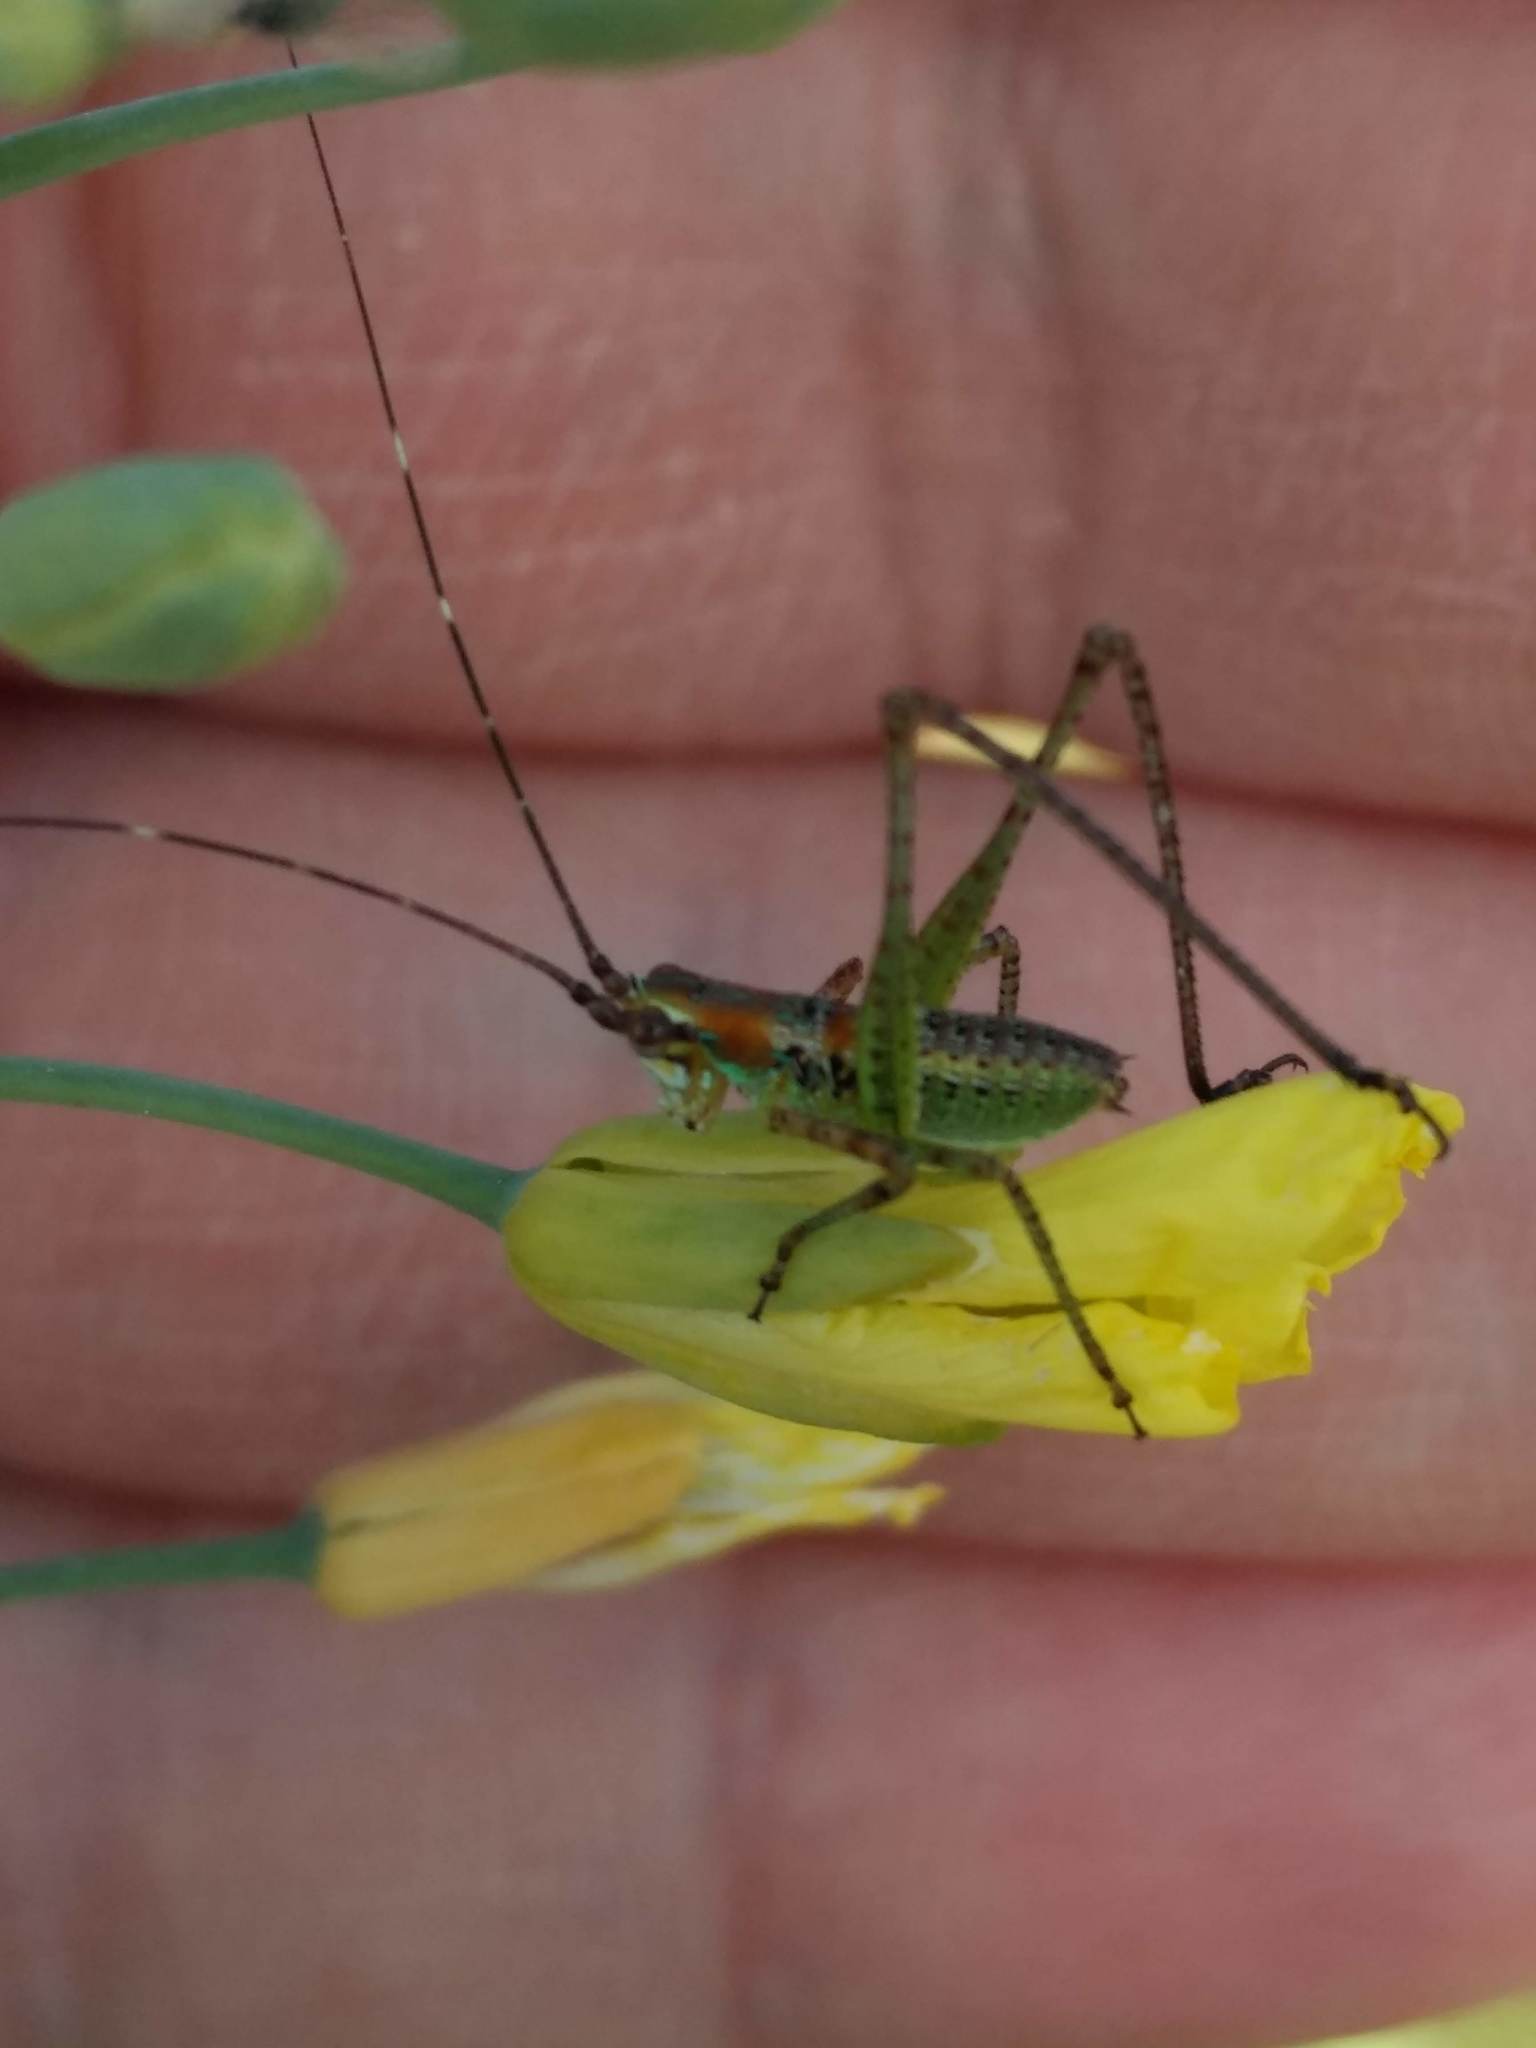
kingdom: Animalia
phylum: Arthropoda
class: Insecta
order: Orthoptera
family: Tettigoniidae
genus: Scudderia
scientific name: Scudderia
